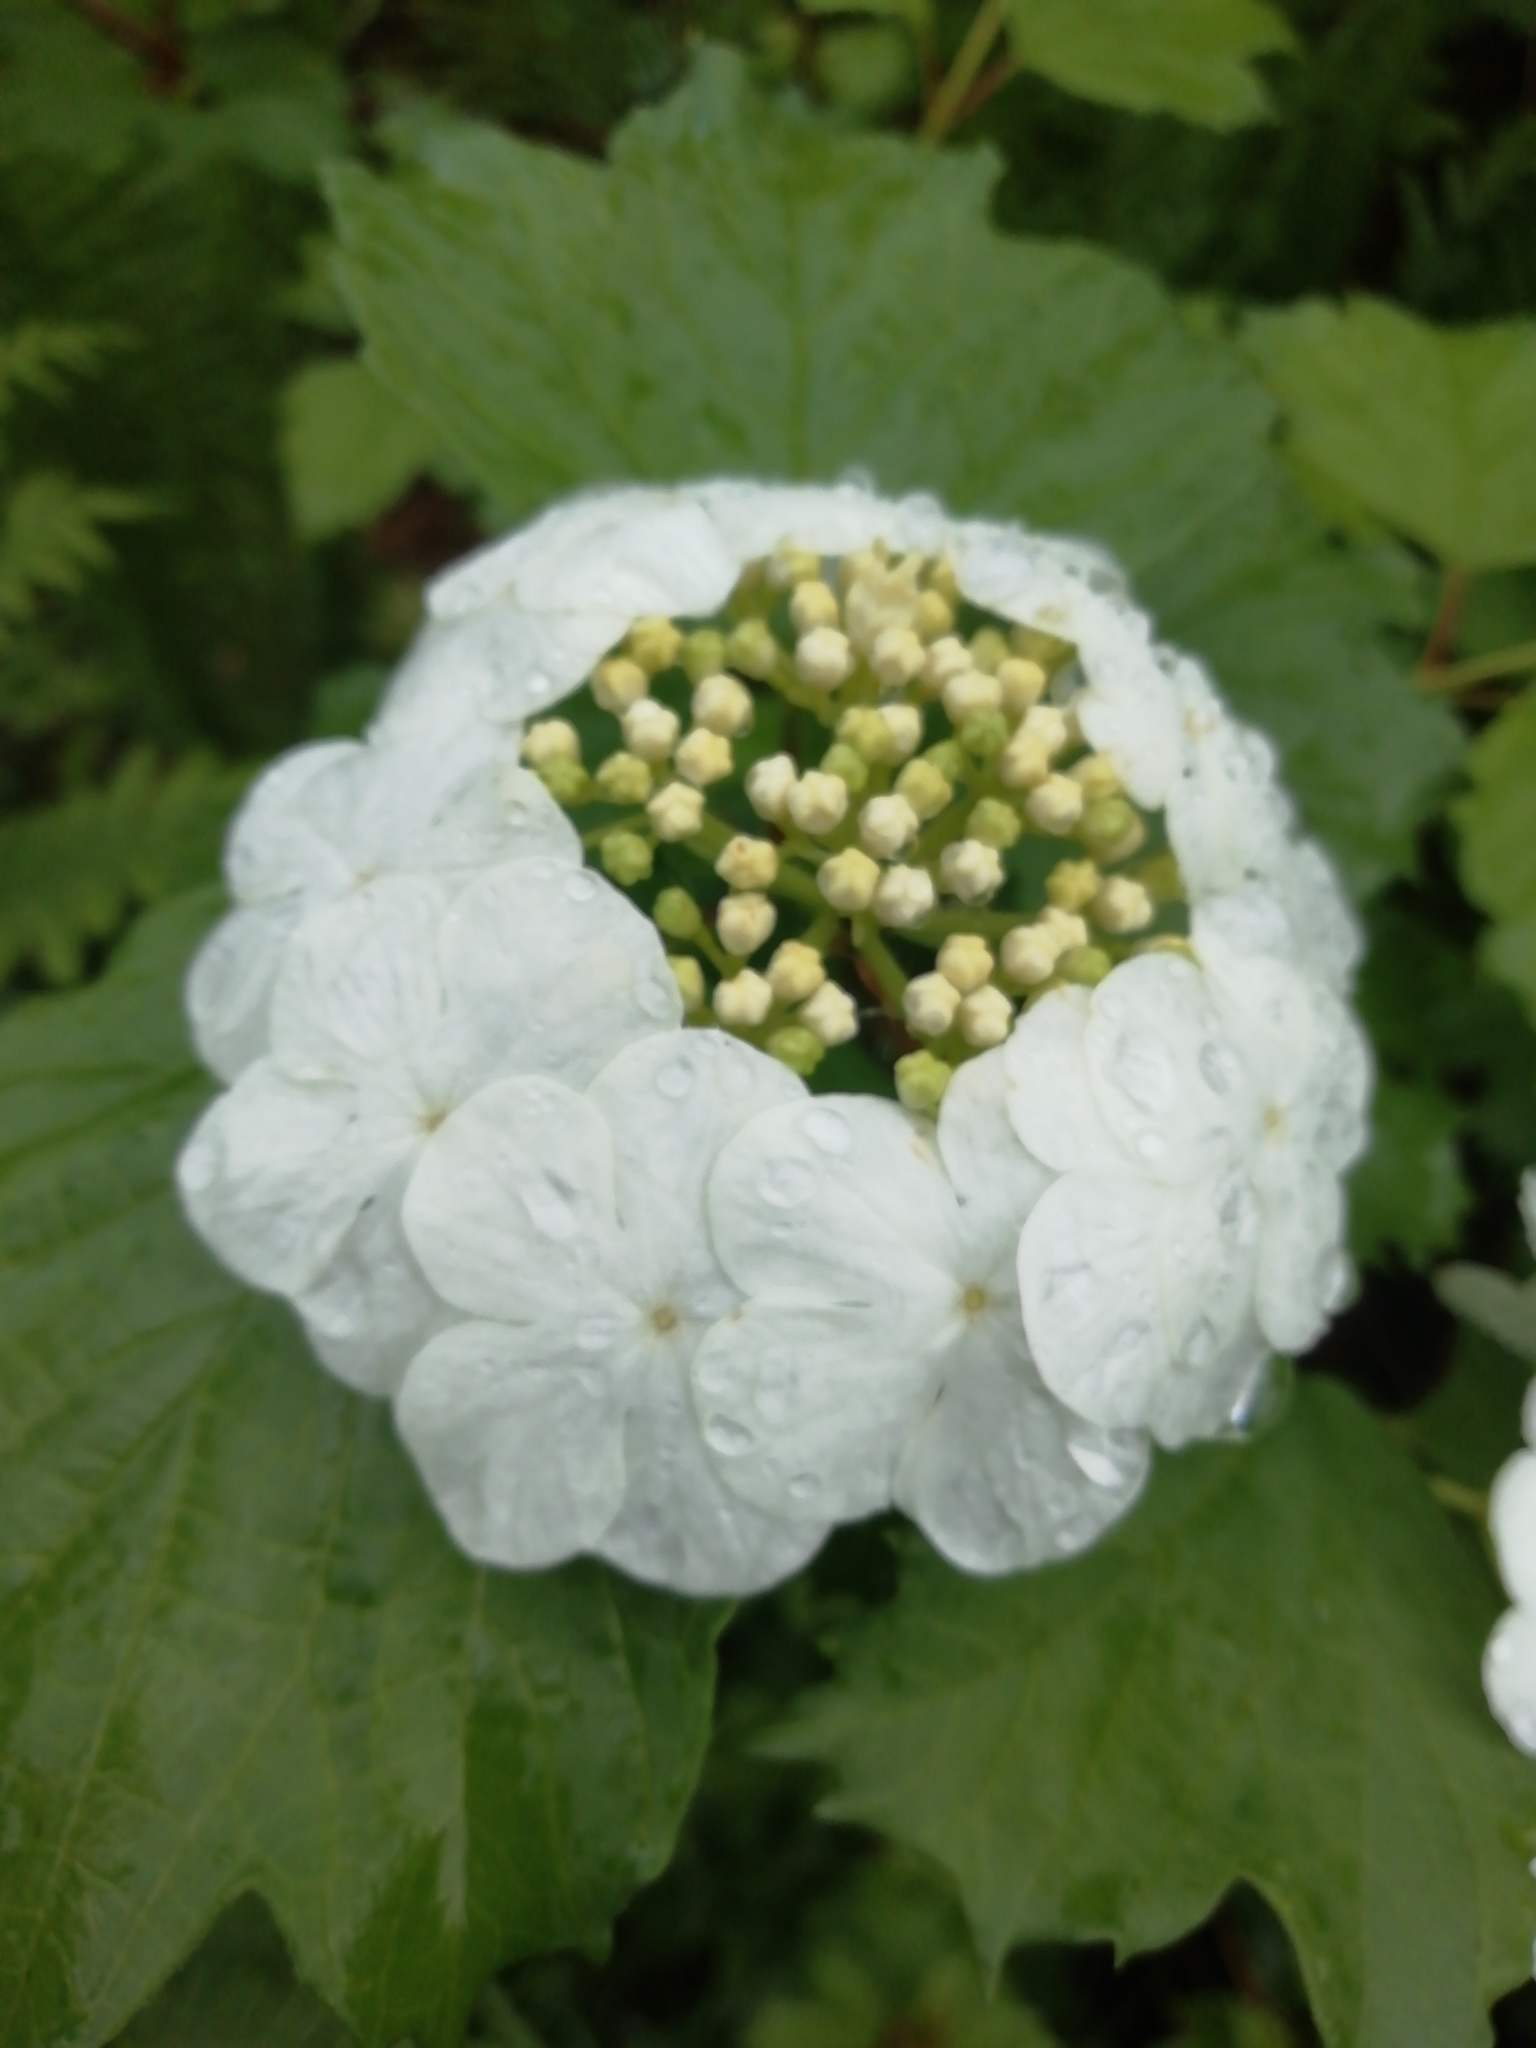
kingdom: Plantae
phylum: Tracheophyta
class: Magnoliopsida
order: Dipsacales
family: Viburnaceae
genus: Viburnum
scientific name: Viburnum opulus
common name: Guelder-rose
